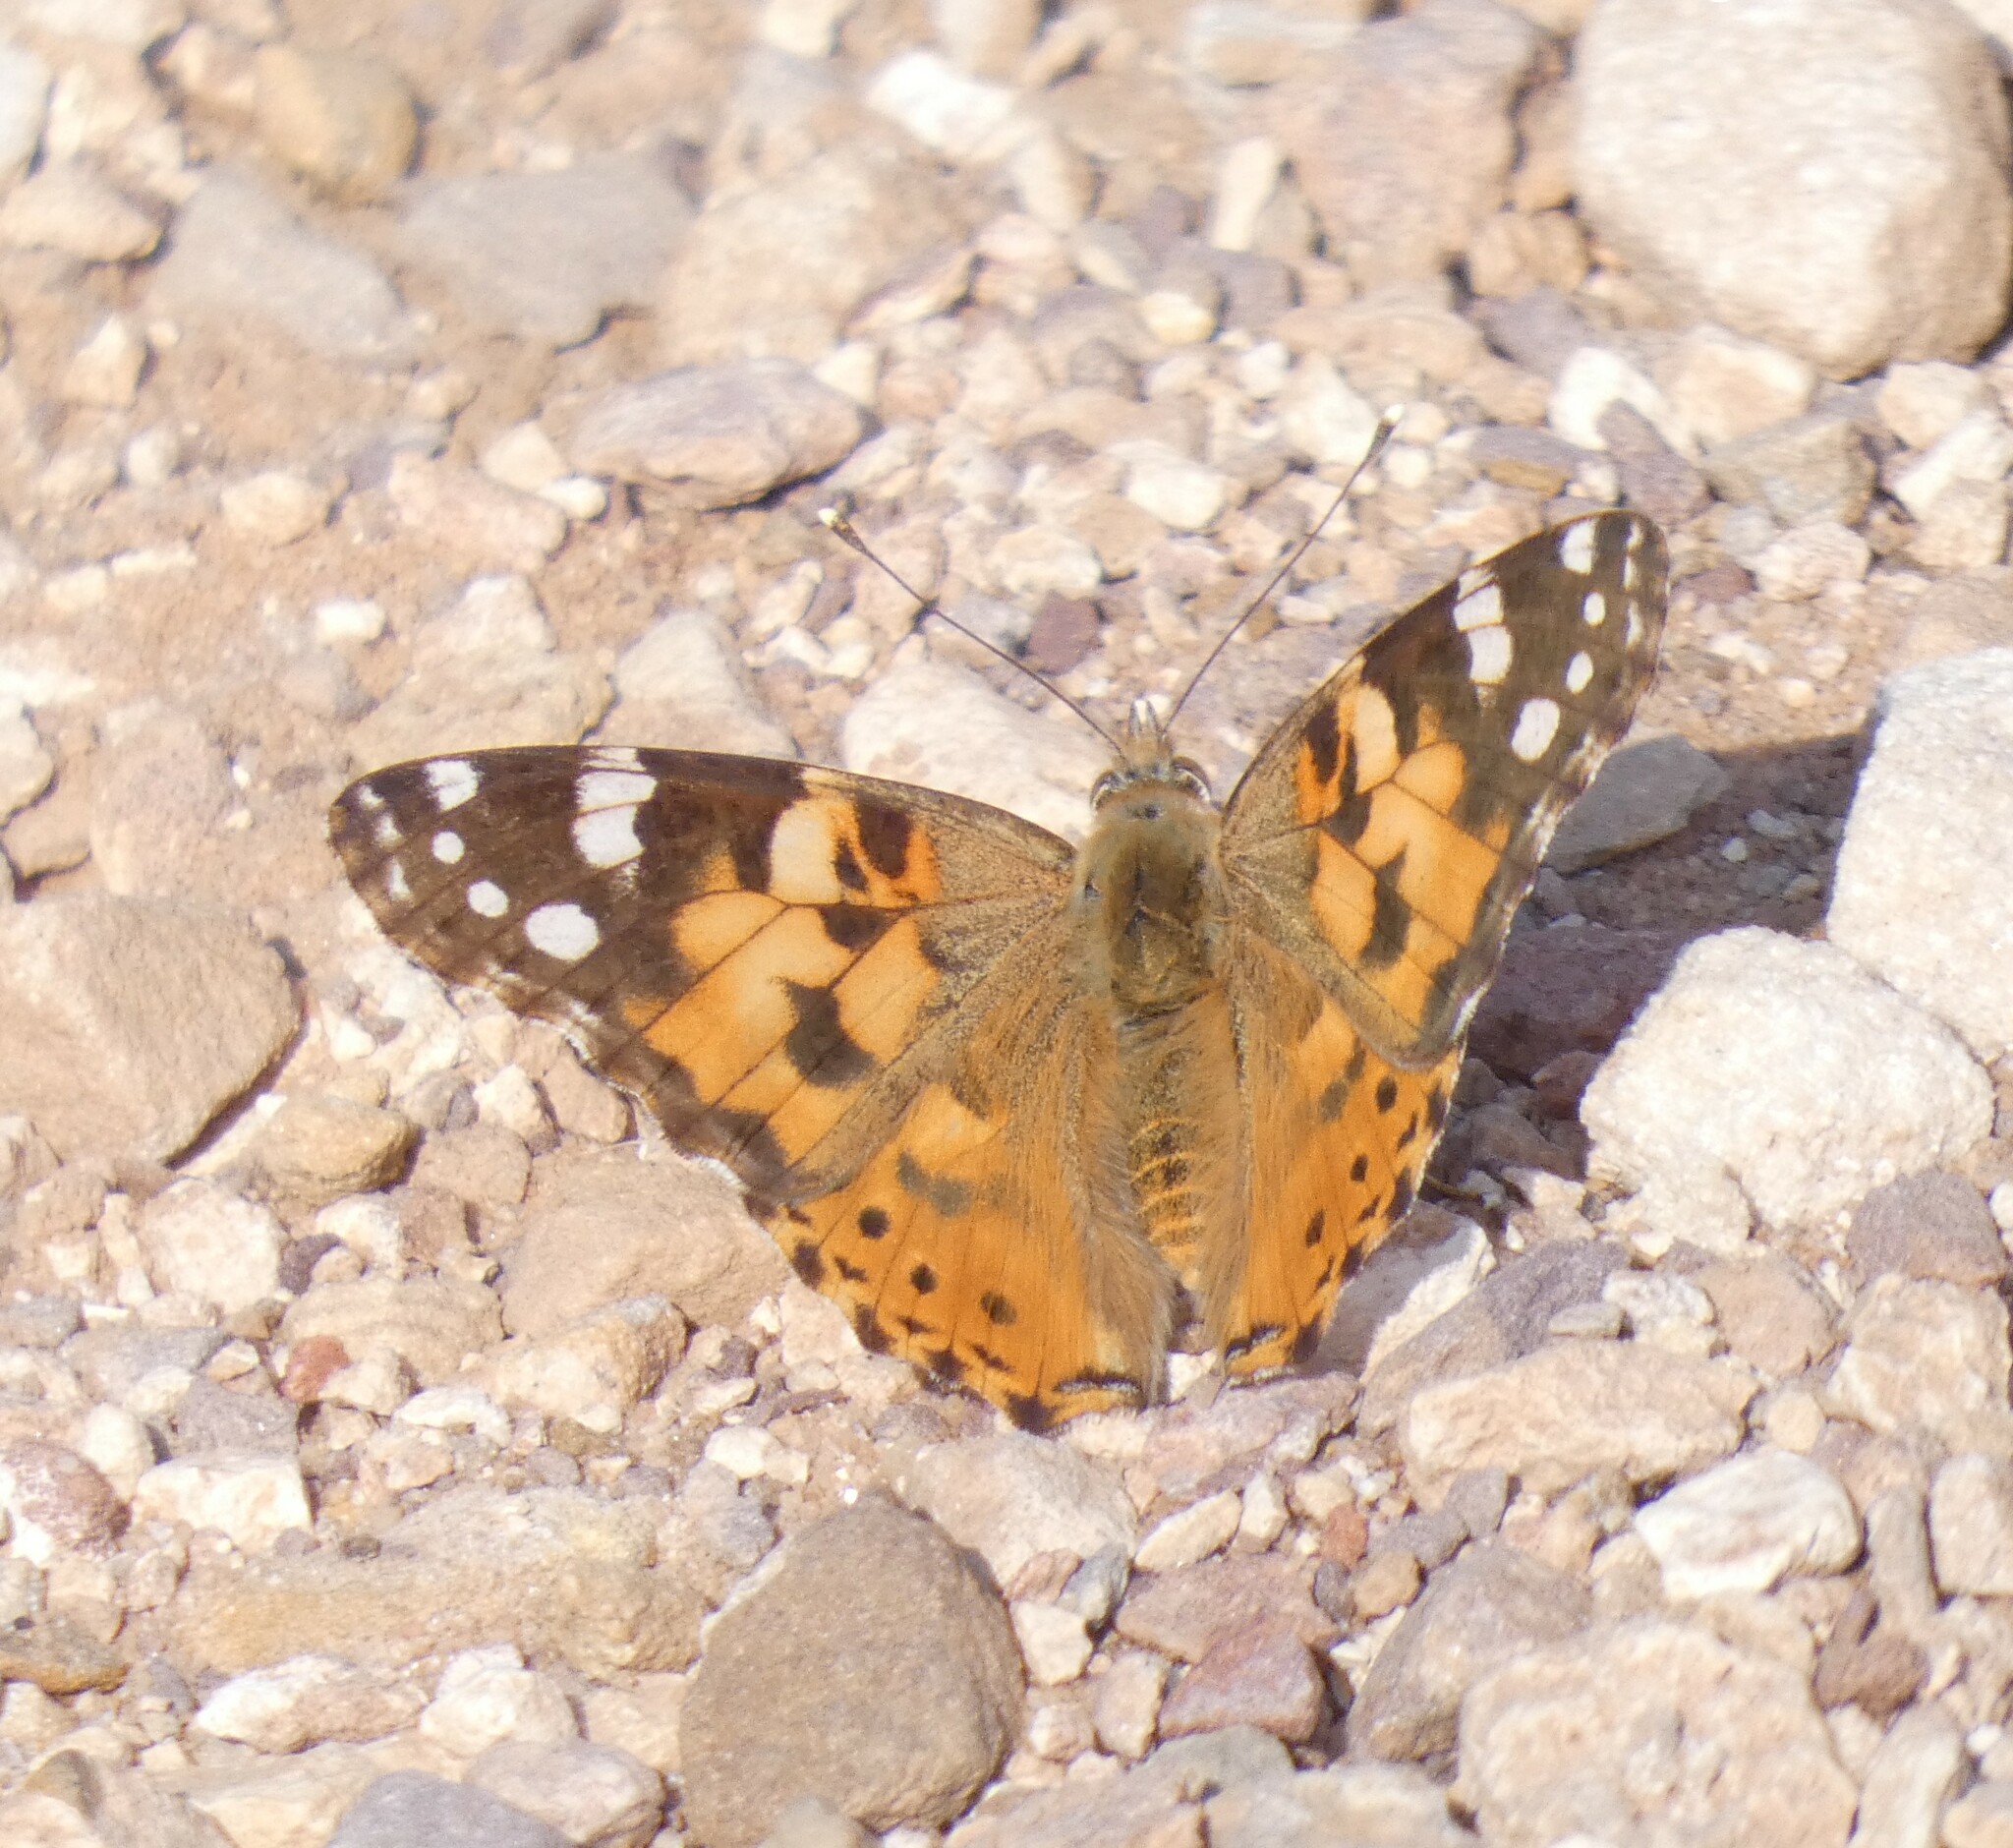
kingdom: Animalia
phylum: Arthropoda
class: Insecta
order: Lepidoptera
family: Nymphalidae
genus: Vanessa
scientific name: Vanessa cardui
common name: Painted lady
